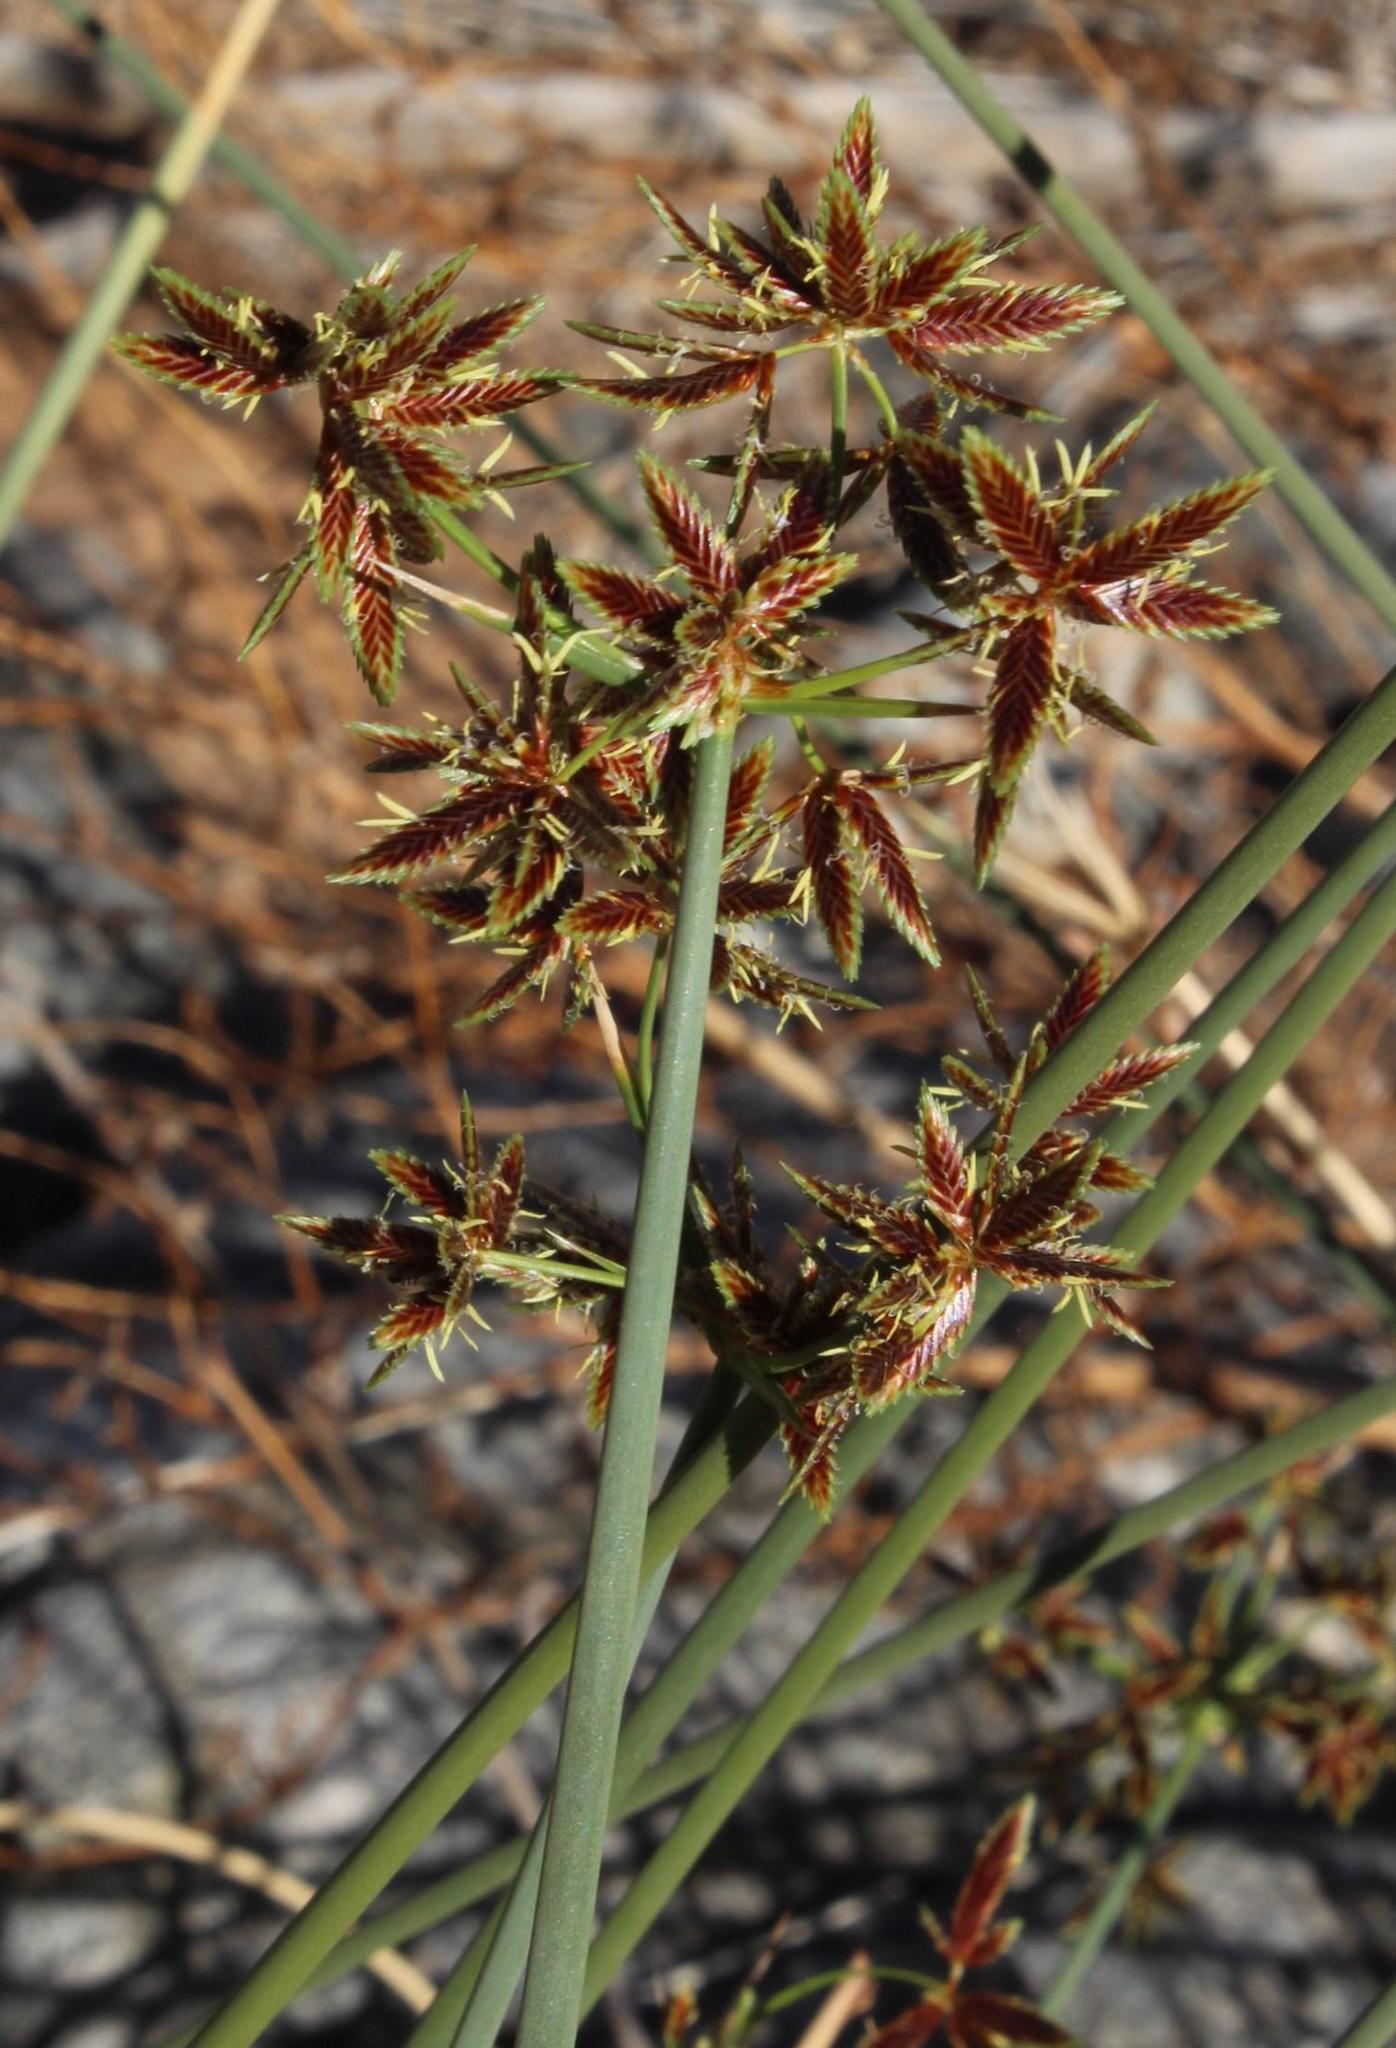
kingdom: Plantae
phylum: Tracheophyta
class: Liliopsida
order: Poales
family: Cyperaceae
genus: Cyperus
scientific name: Cyperus marginatus
